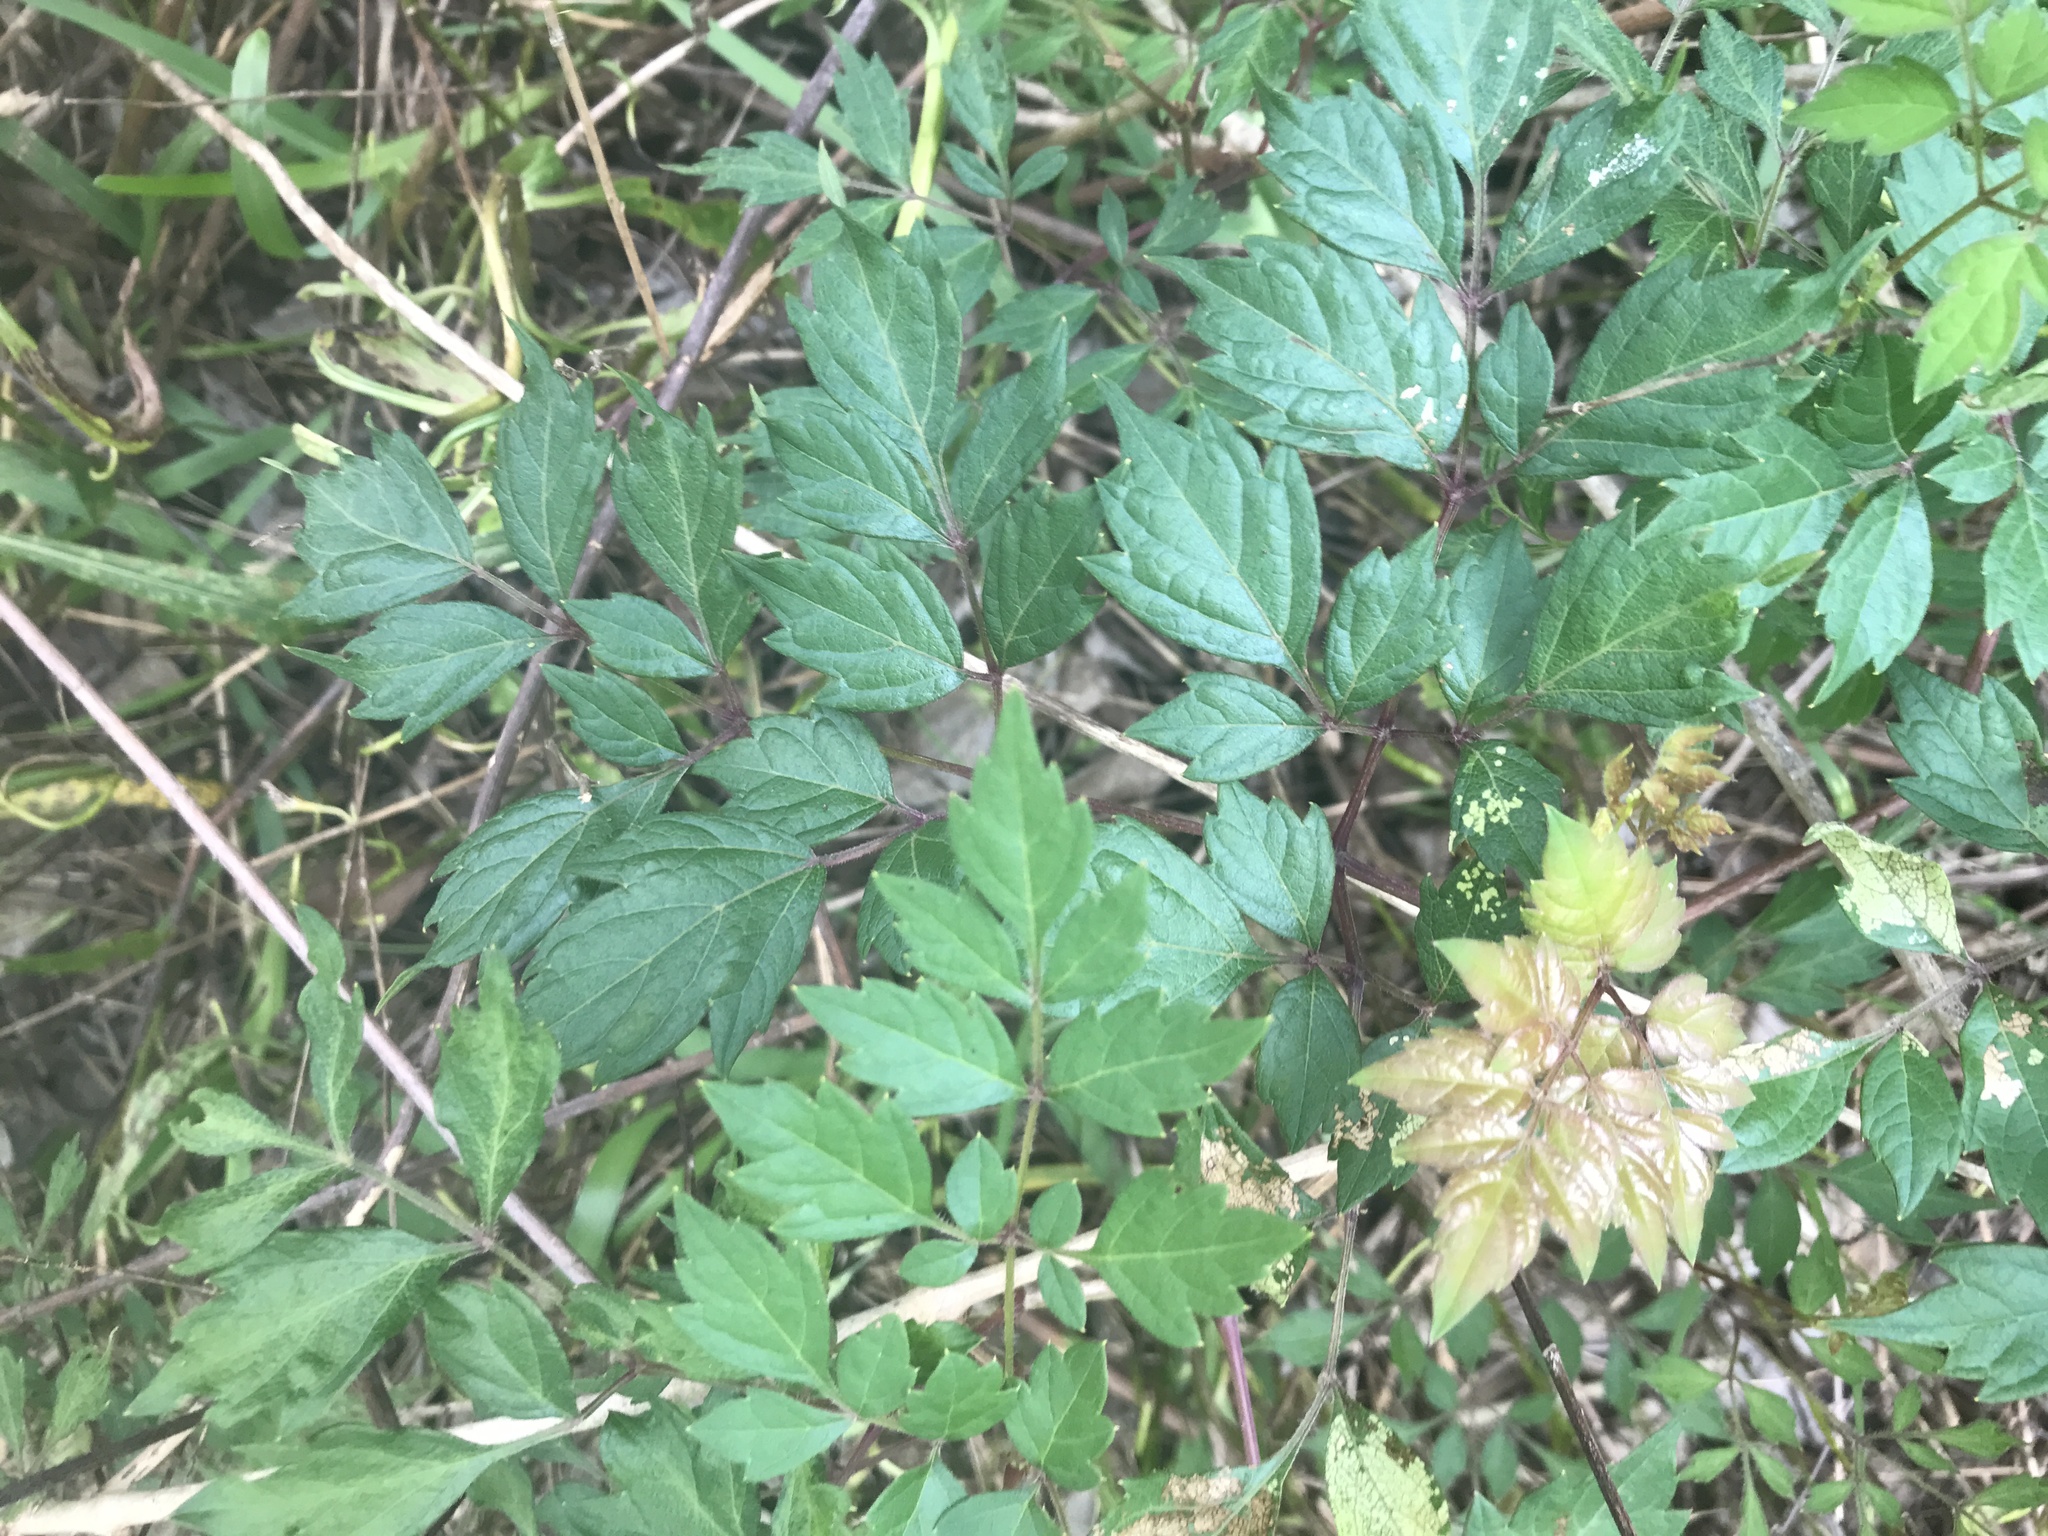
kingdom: Plantae
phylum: Tracheophyta
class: Magnoliopsida
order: Vitales
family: Vitaceae
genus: Nekemias
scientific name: Nekemias arborea
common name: Peppervine
